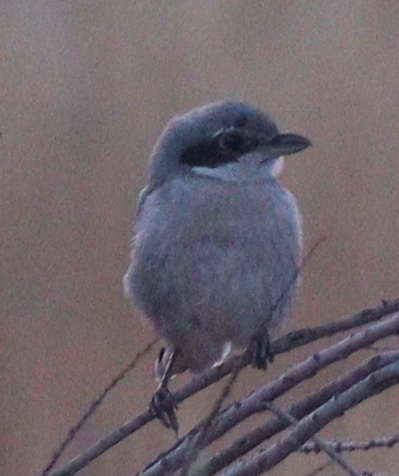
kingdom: Animalia
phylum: Chordata
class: Aves
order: Passeriformes
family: Laniidae
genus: Lanius
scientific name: Lanius meridionalis
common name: Iberian grey shrike
